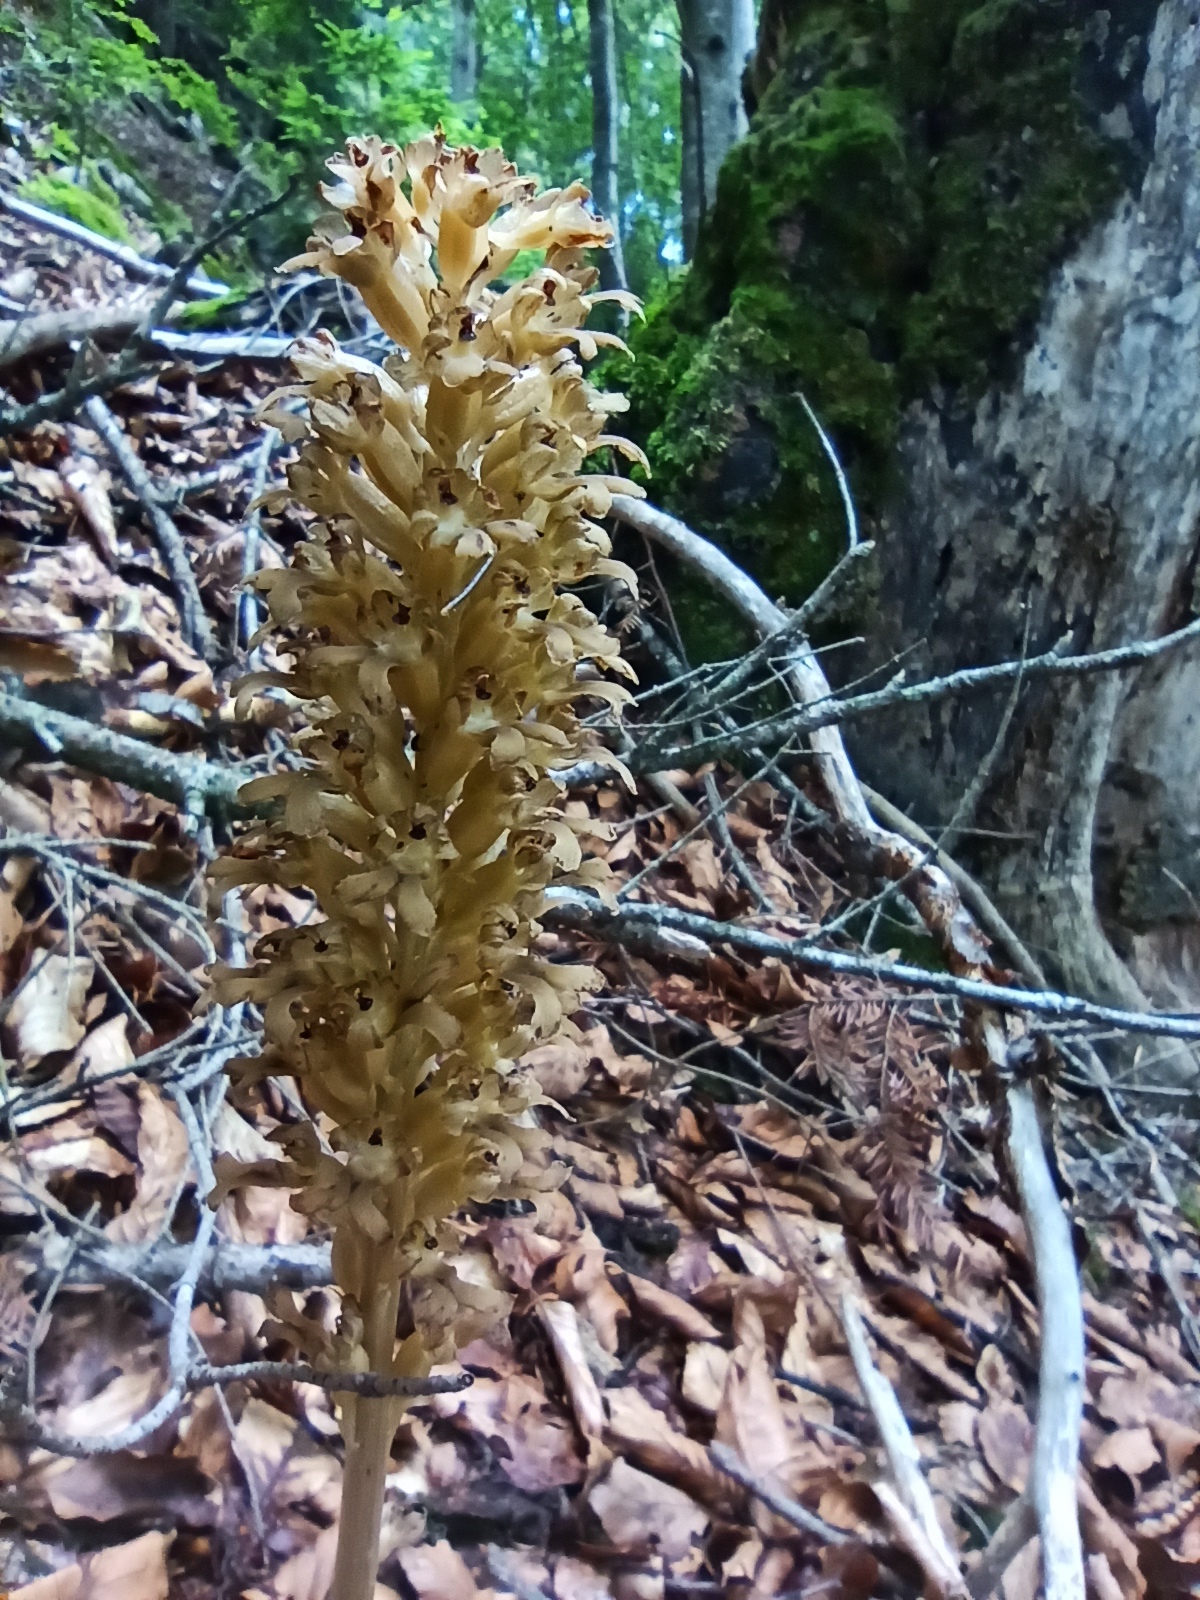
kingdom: Plantae
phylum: Tracheophyta
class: Liliopsida
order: Asparagales
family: Orchidaceae
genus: Neottia
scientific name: Neottia nidus-avis
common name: Bird's-nest orchid
